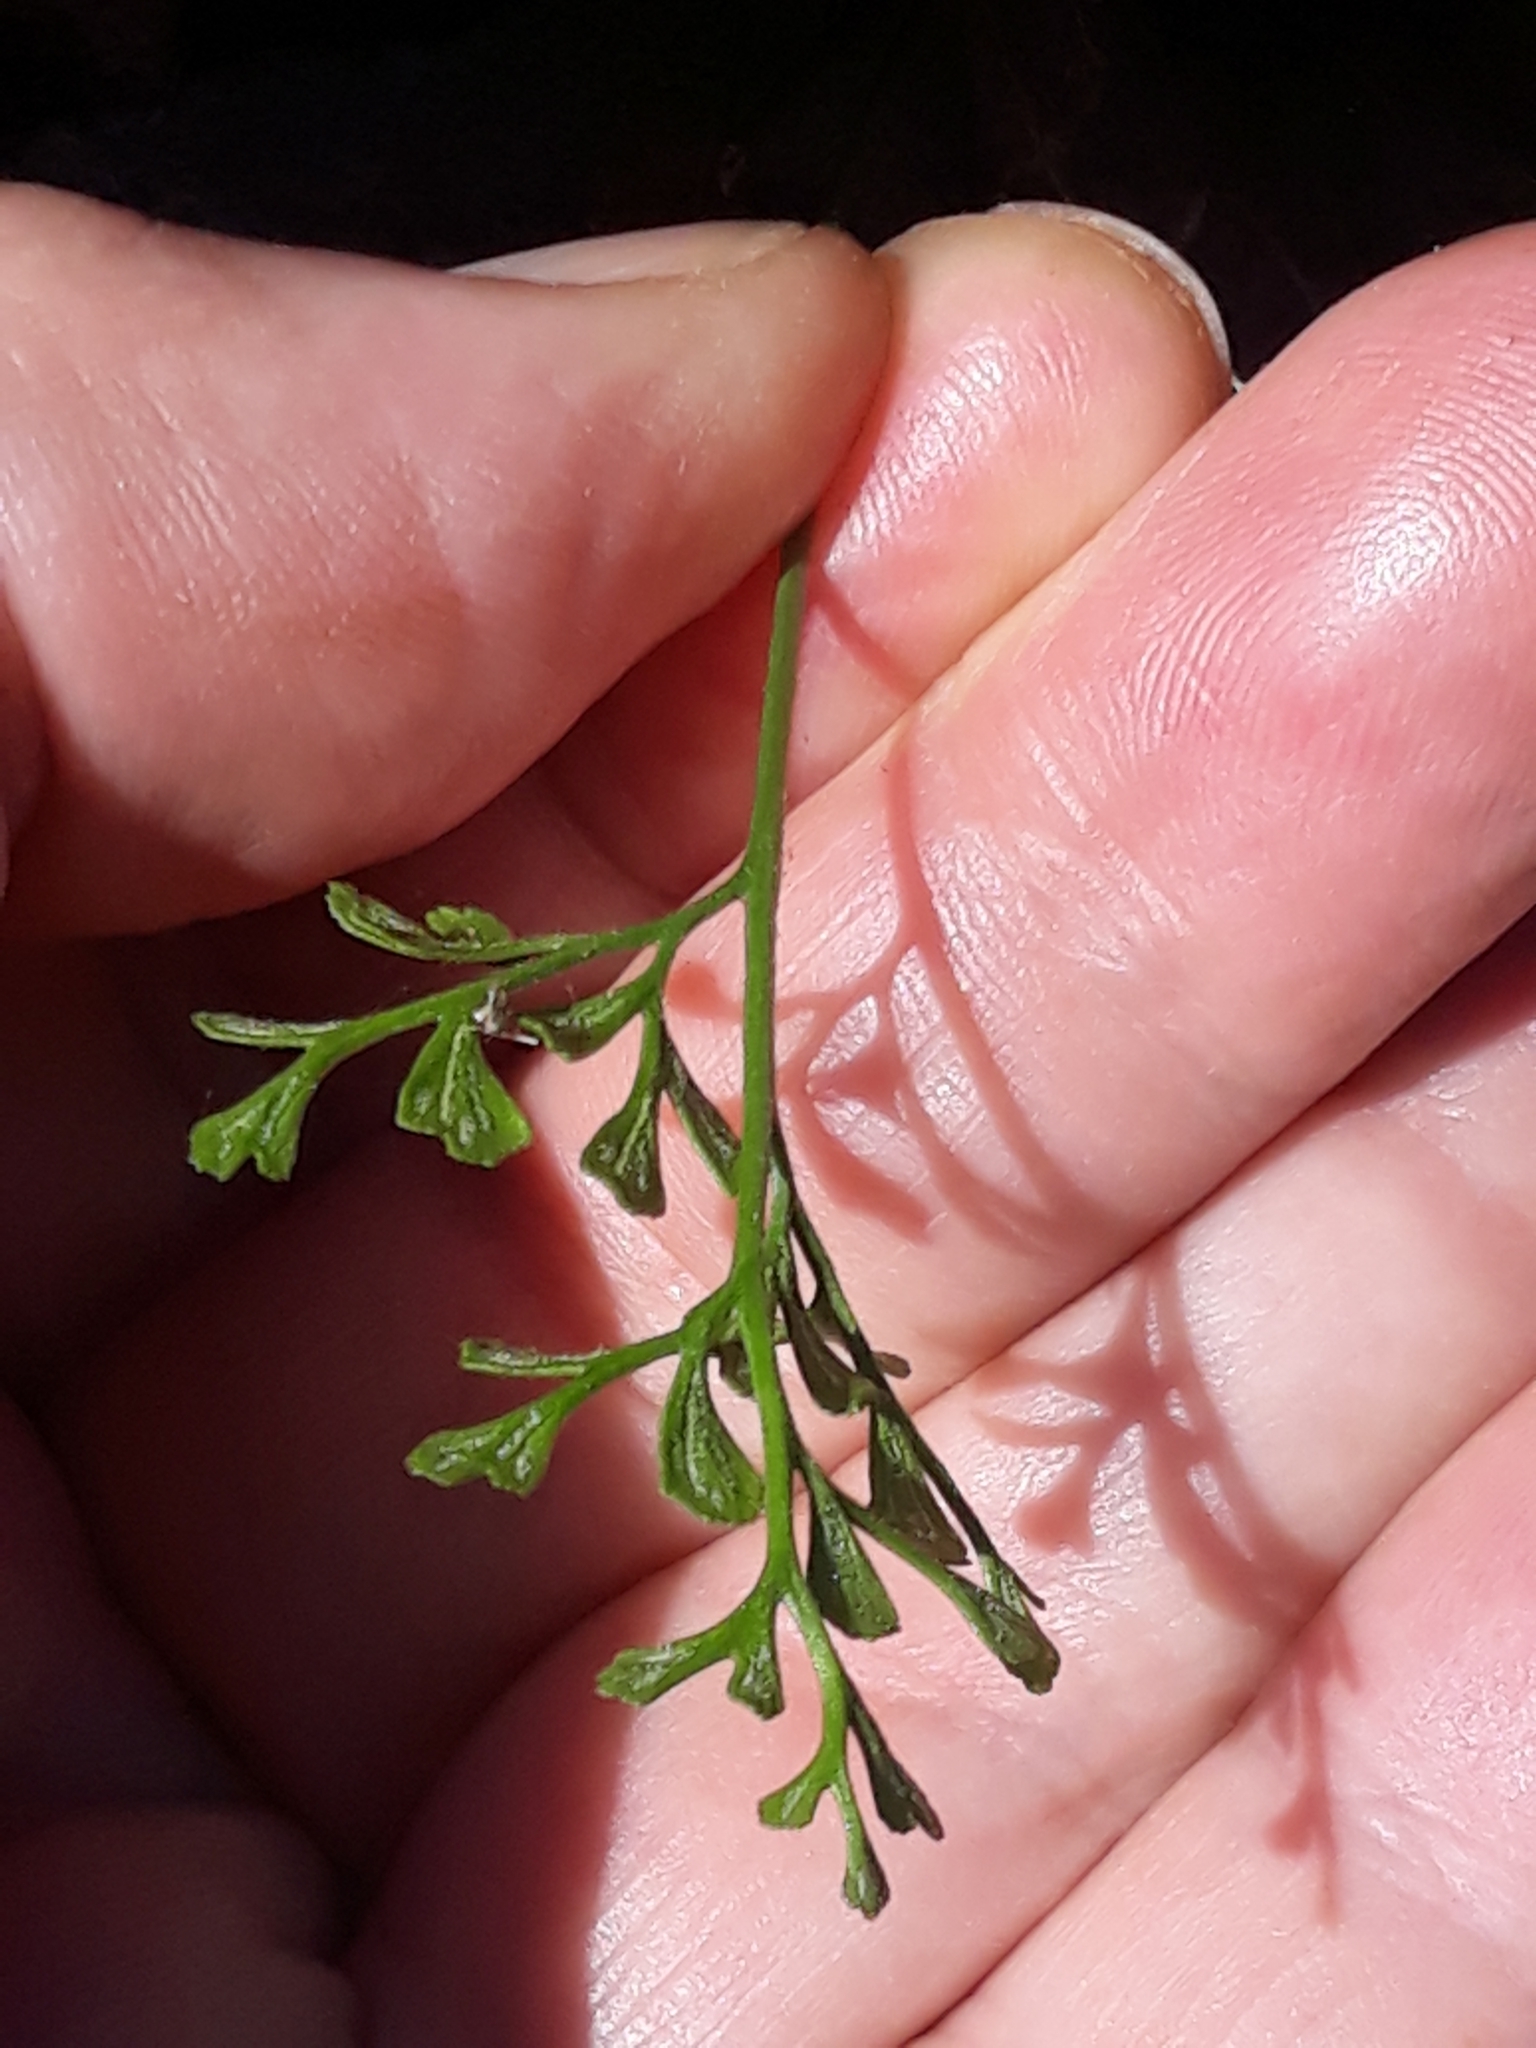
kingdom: Plantae
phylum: Tracheophyta
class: Polypodiopsida
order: Polypodiales
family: Aspleniaceae
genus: Asplenium
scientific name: Asplenium ruta-muraria
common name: Wall-rue
